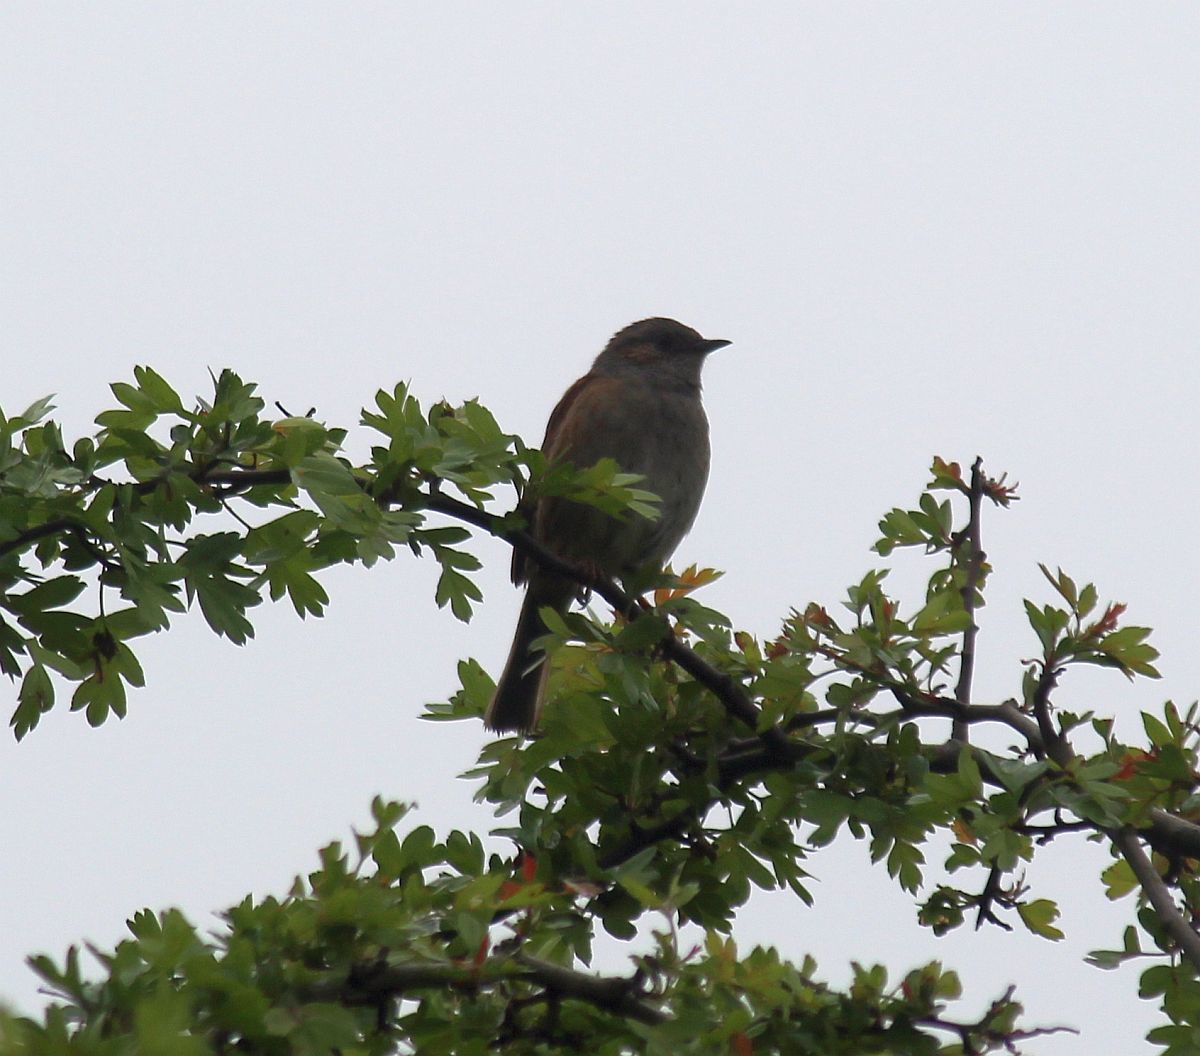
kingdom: Animalia
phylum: Chordata
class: Aves
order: Passeriformes
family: Prunellidae
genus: Prunella
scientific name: Prunella modularis
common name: Dunnock
